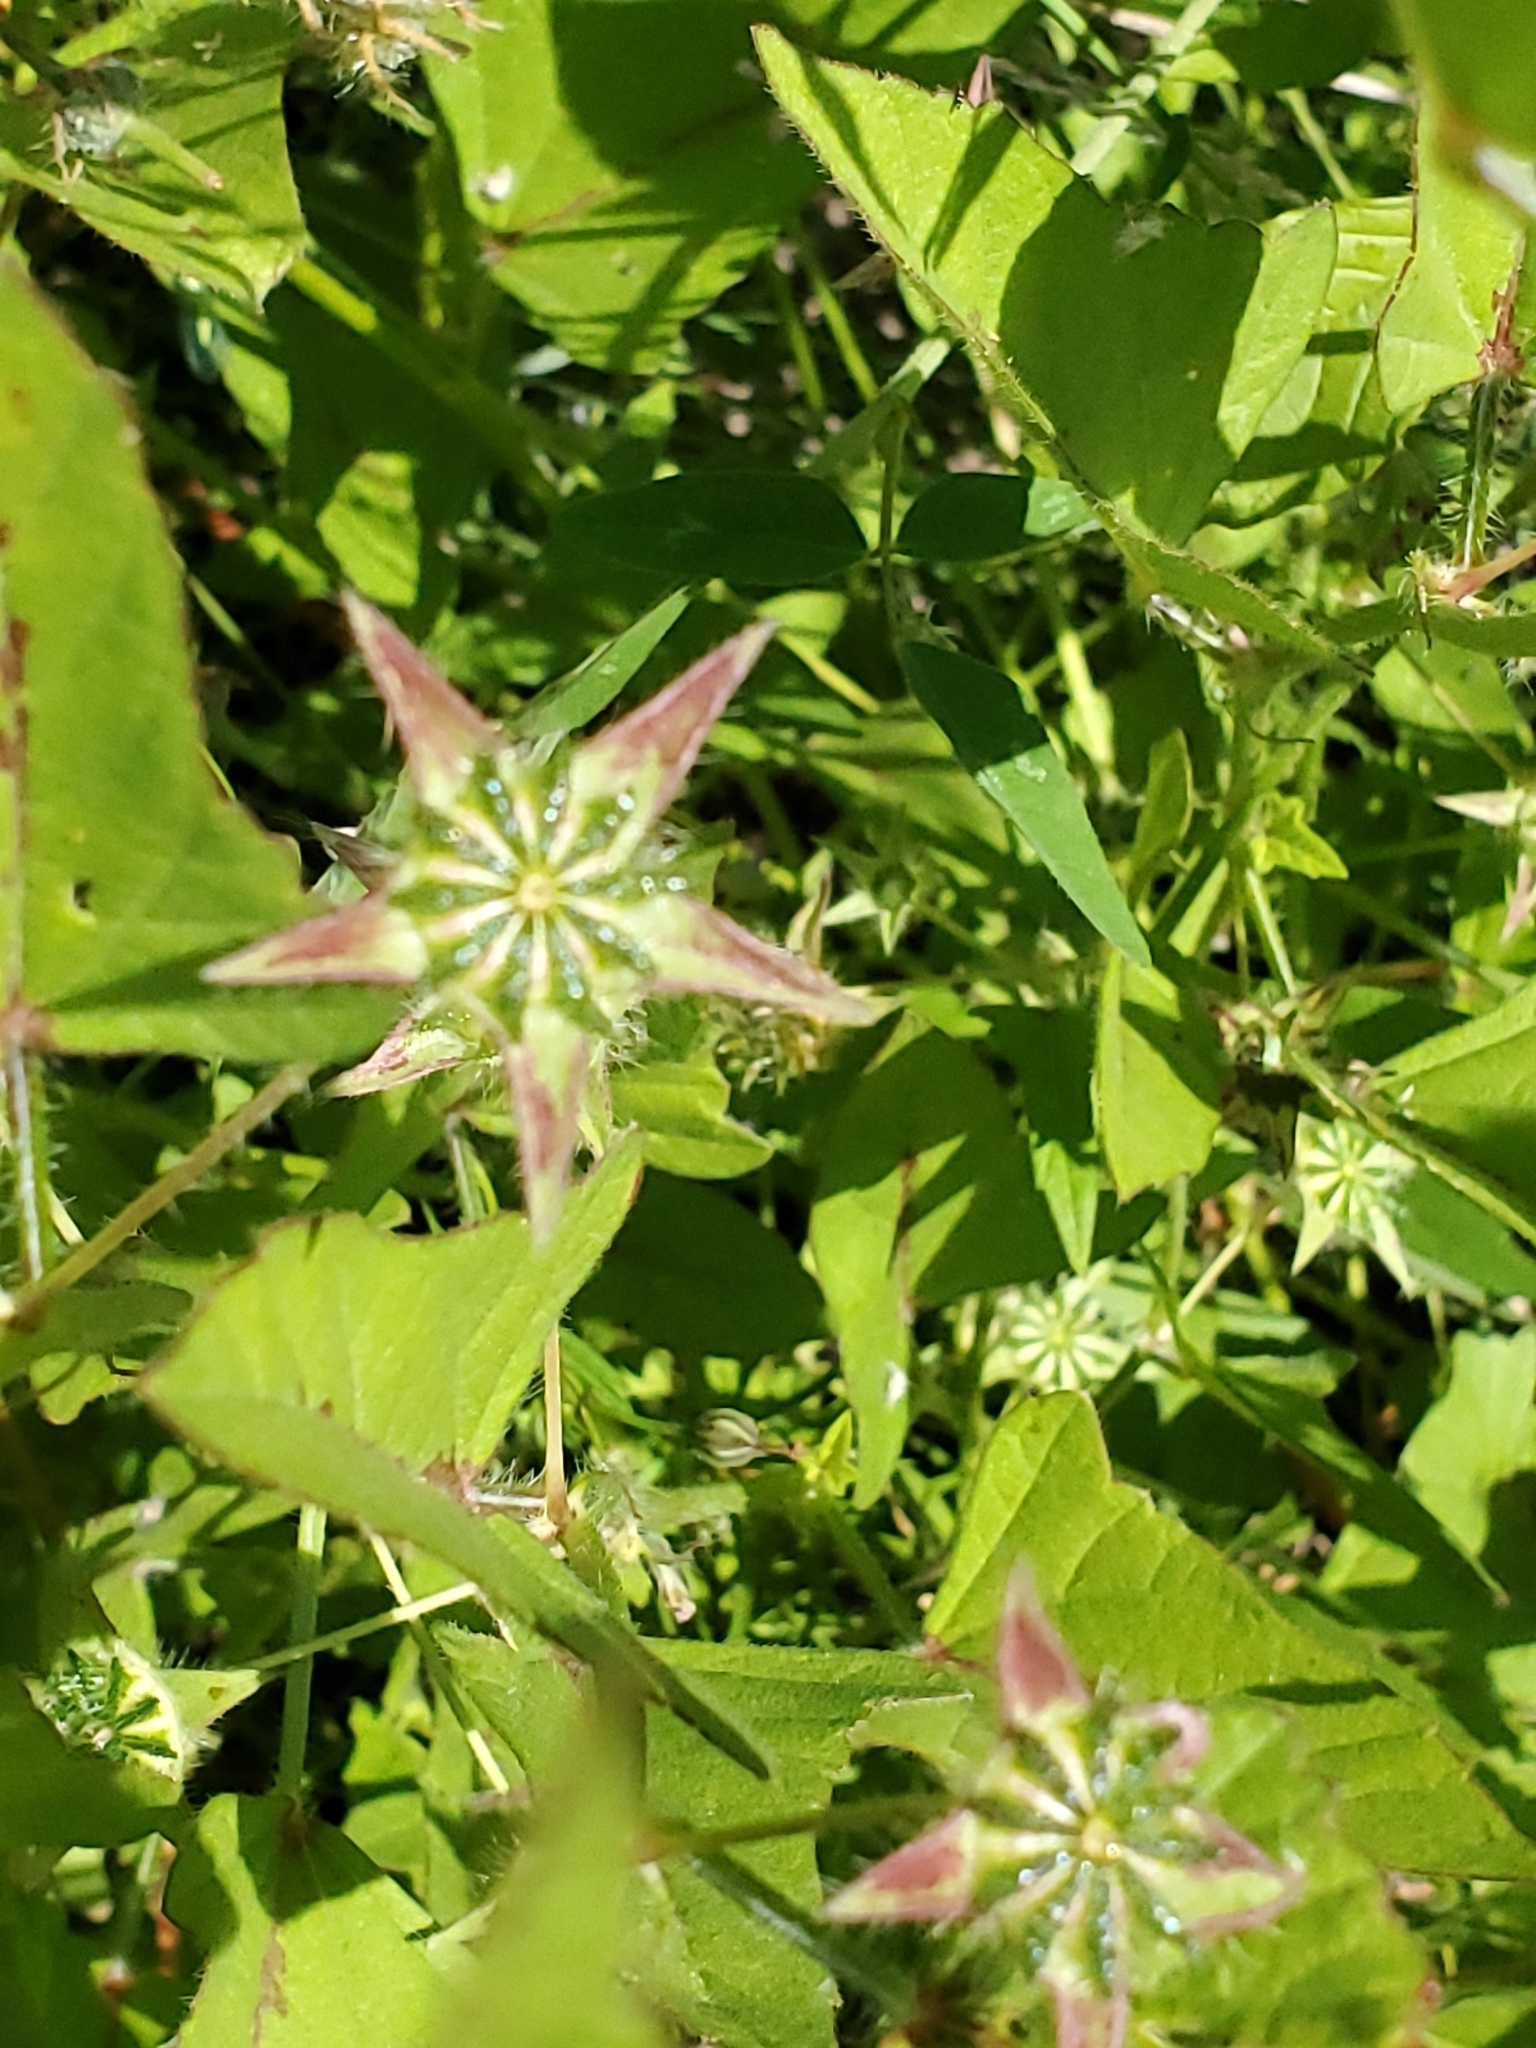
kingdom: Plantae
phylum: Tracheophyta
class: Magnoliopsida
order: Malvales
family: Malvaceae
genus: Anoda
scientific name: Anoda cristata
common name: Spurred anoda
